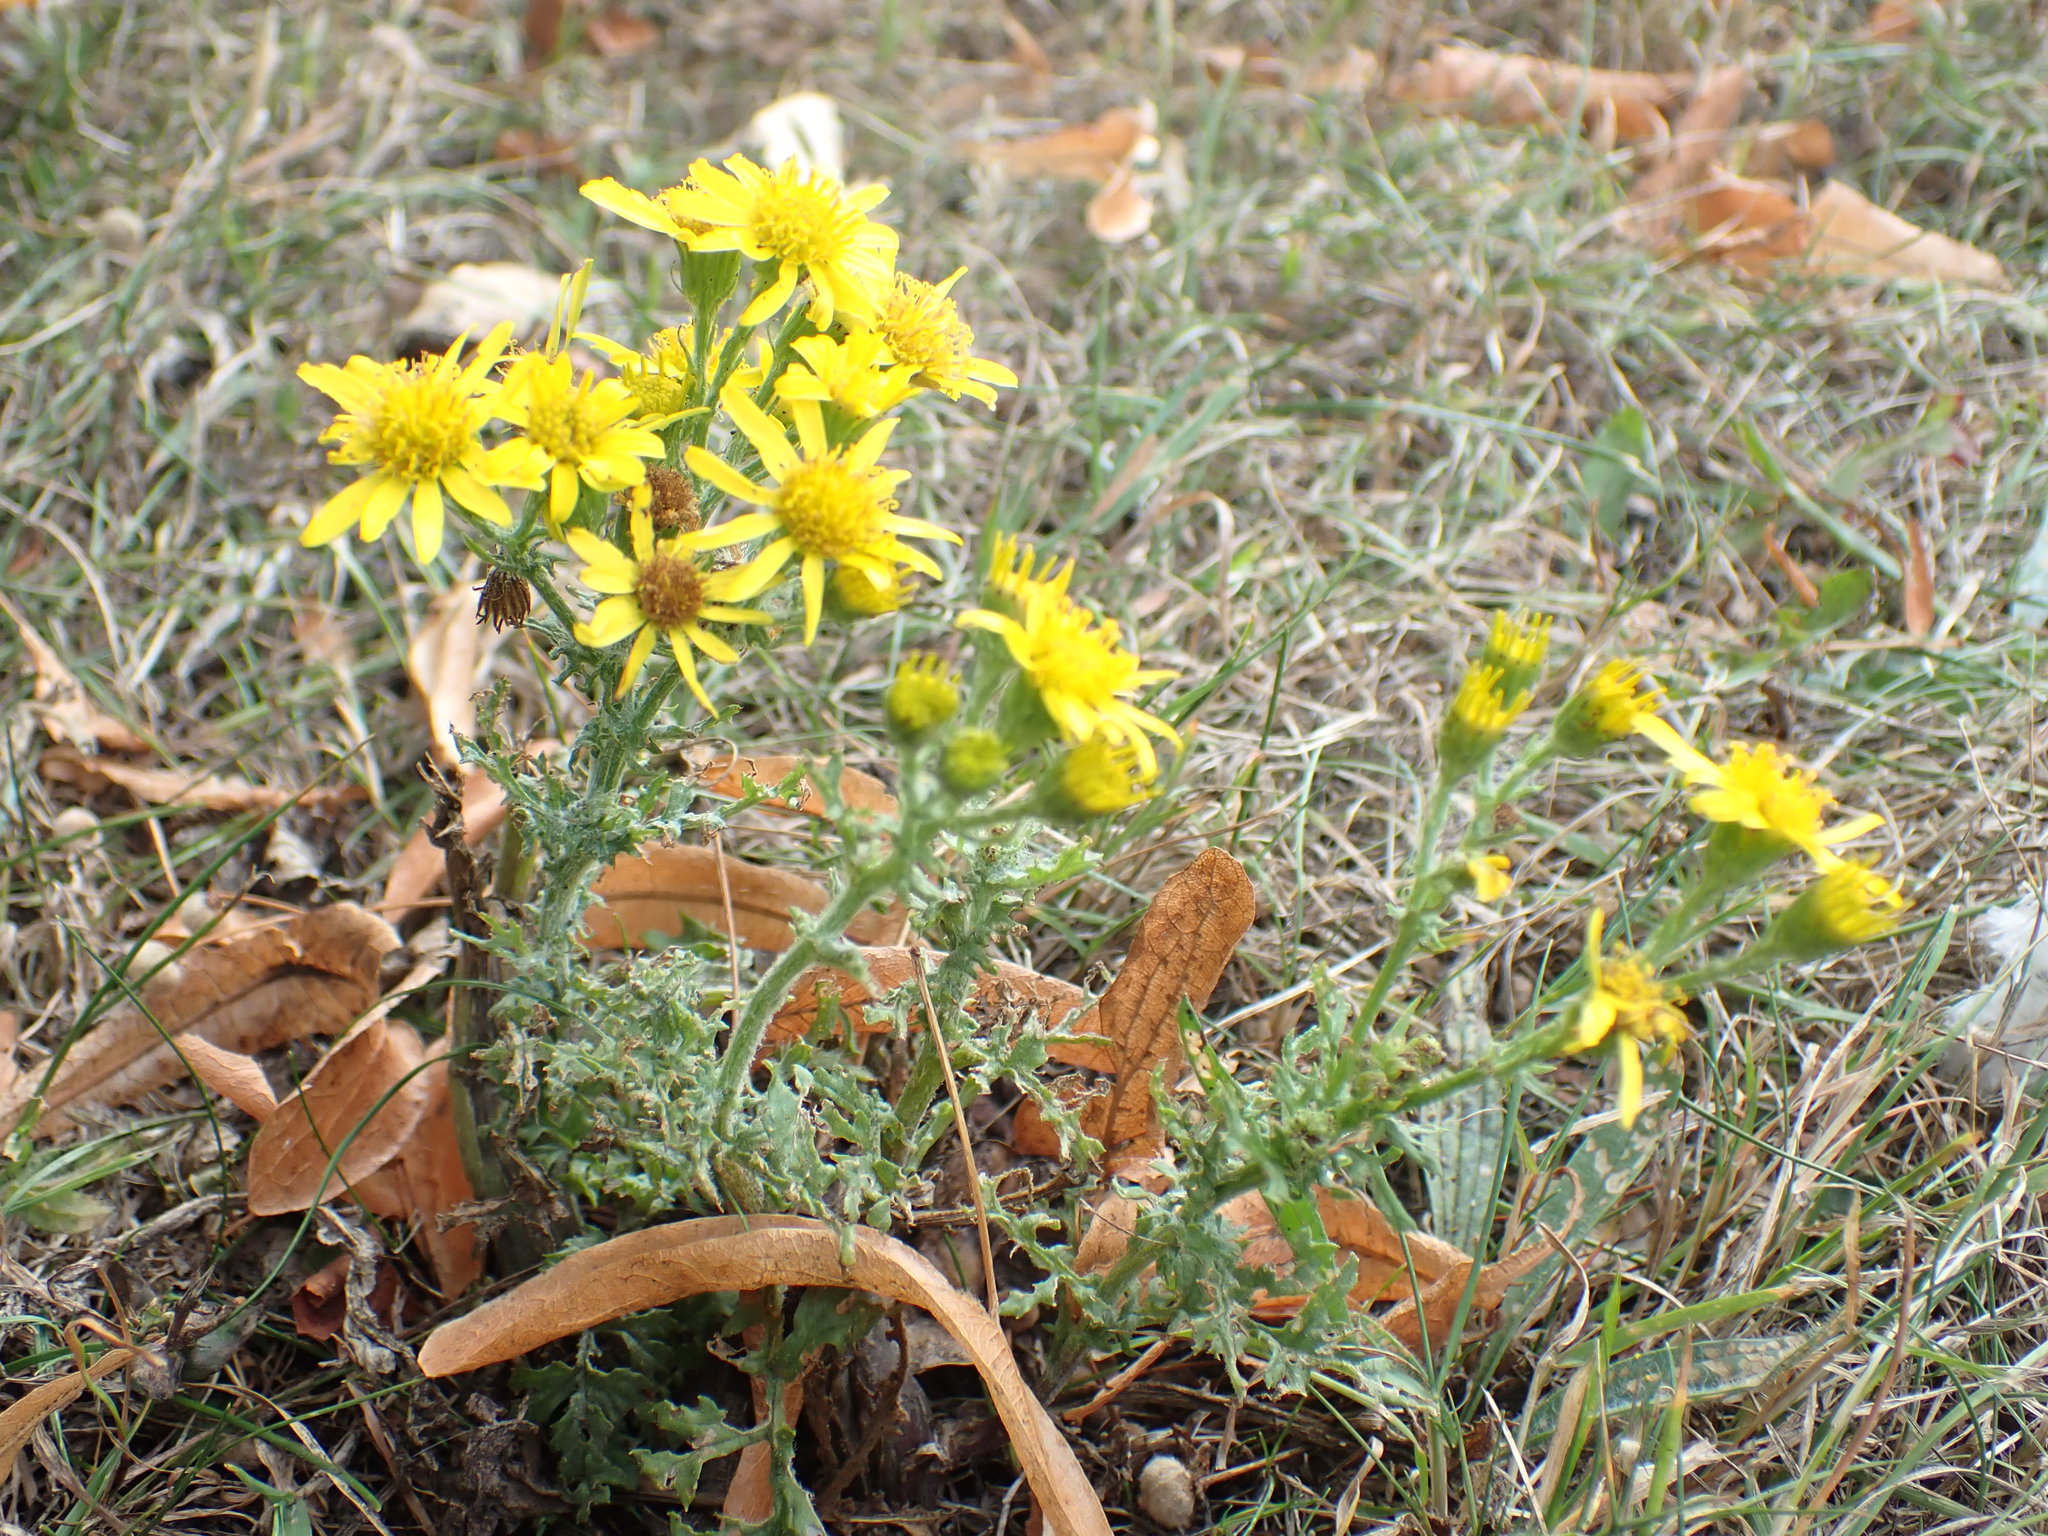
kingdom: Plantae
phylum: Tracheophyta
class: Magnoliopsida
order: Asterales
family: Asteraceae
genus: Jacobaea
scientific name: Jacobaea vulgaris
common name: Stinking willie
